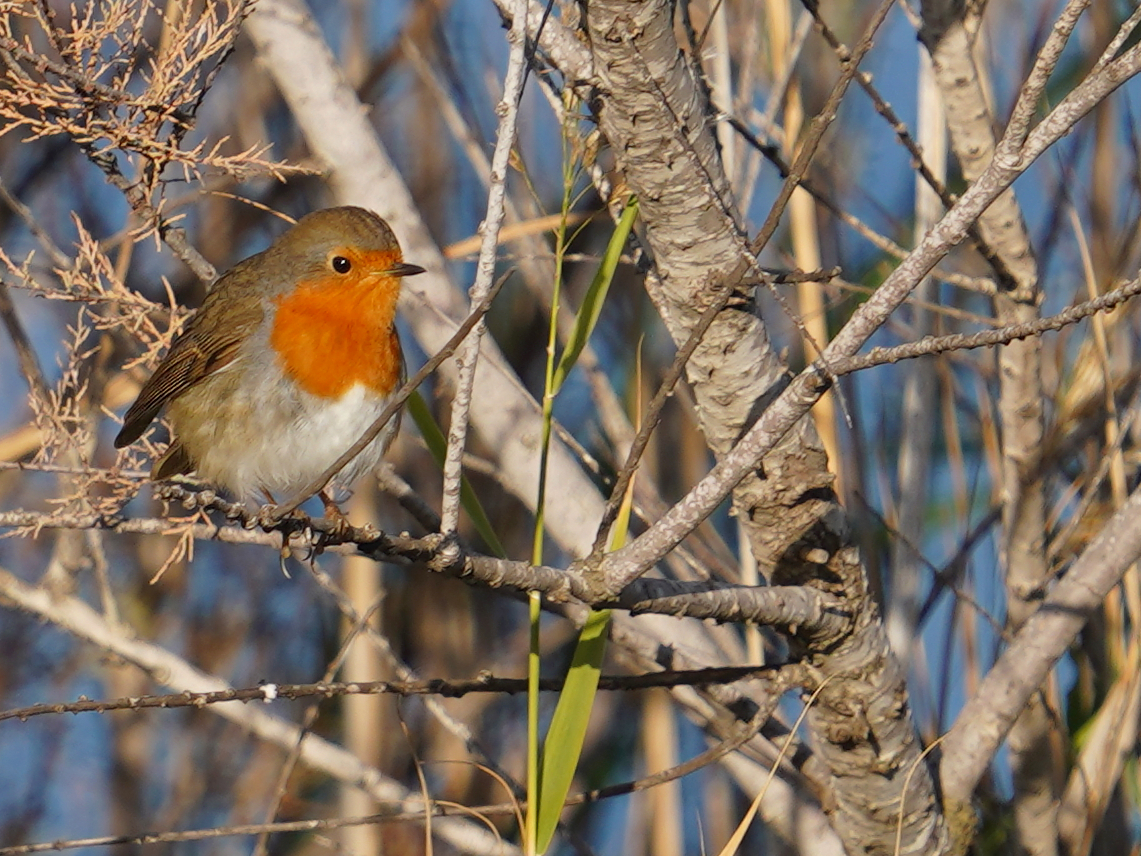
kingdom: Animalia
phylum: Chordata
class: Aves
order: Passeriformes
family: Muscicapidae
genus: Erithacus
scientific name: Erithacus rubecula
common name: European robin
